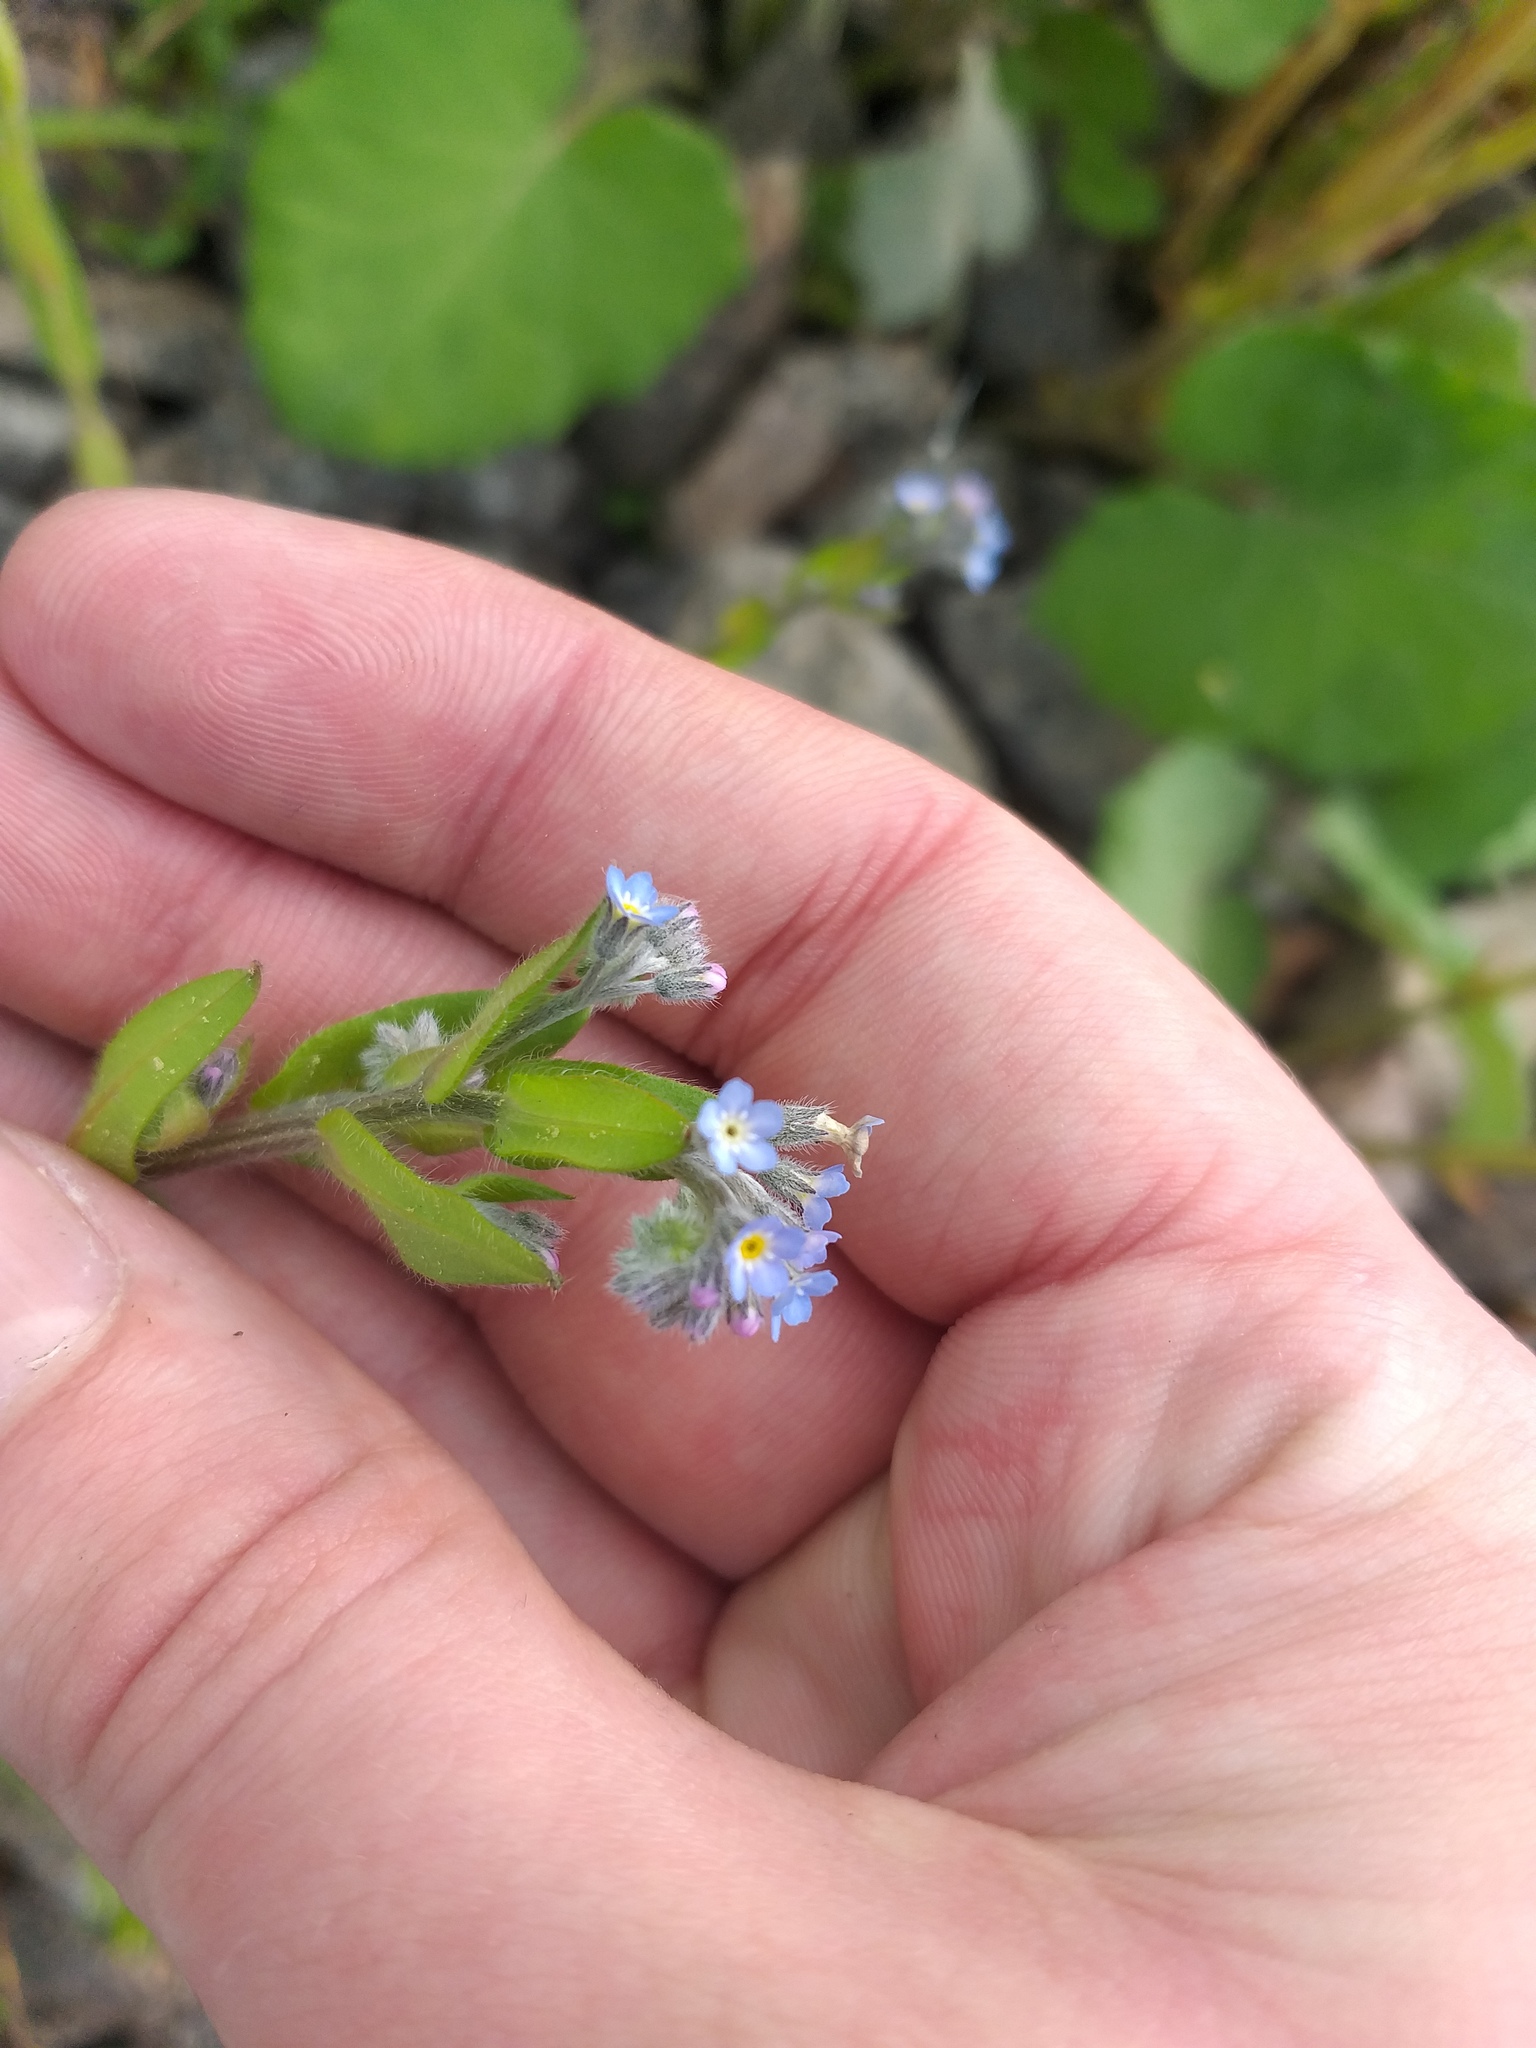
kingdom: Plantae
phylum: Tracheophyta
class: Magnoliopsida
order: Boraginales
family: Boraginaceae
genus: Myosotis
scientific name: Myosotis arvensis
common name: Field forget-me-not
